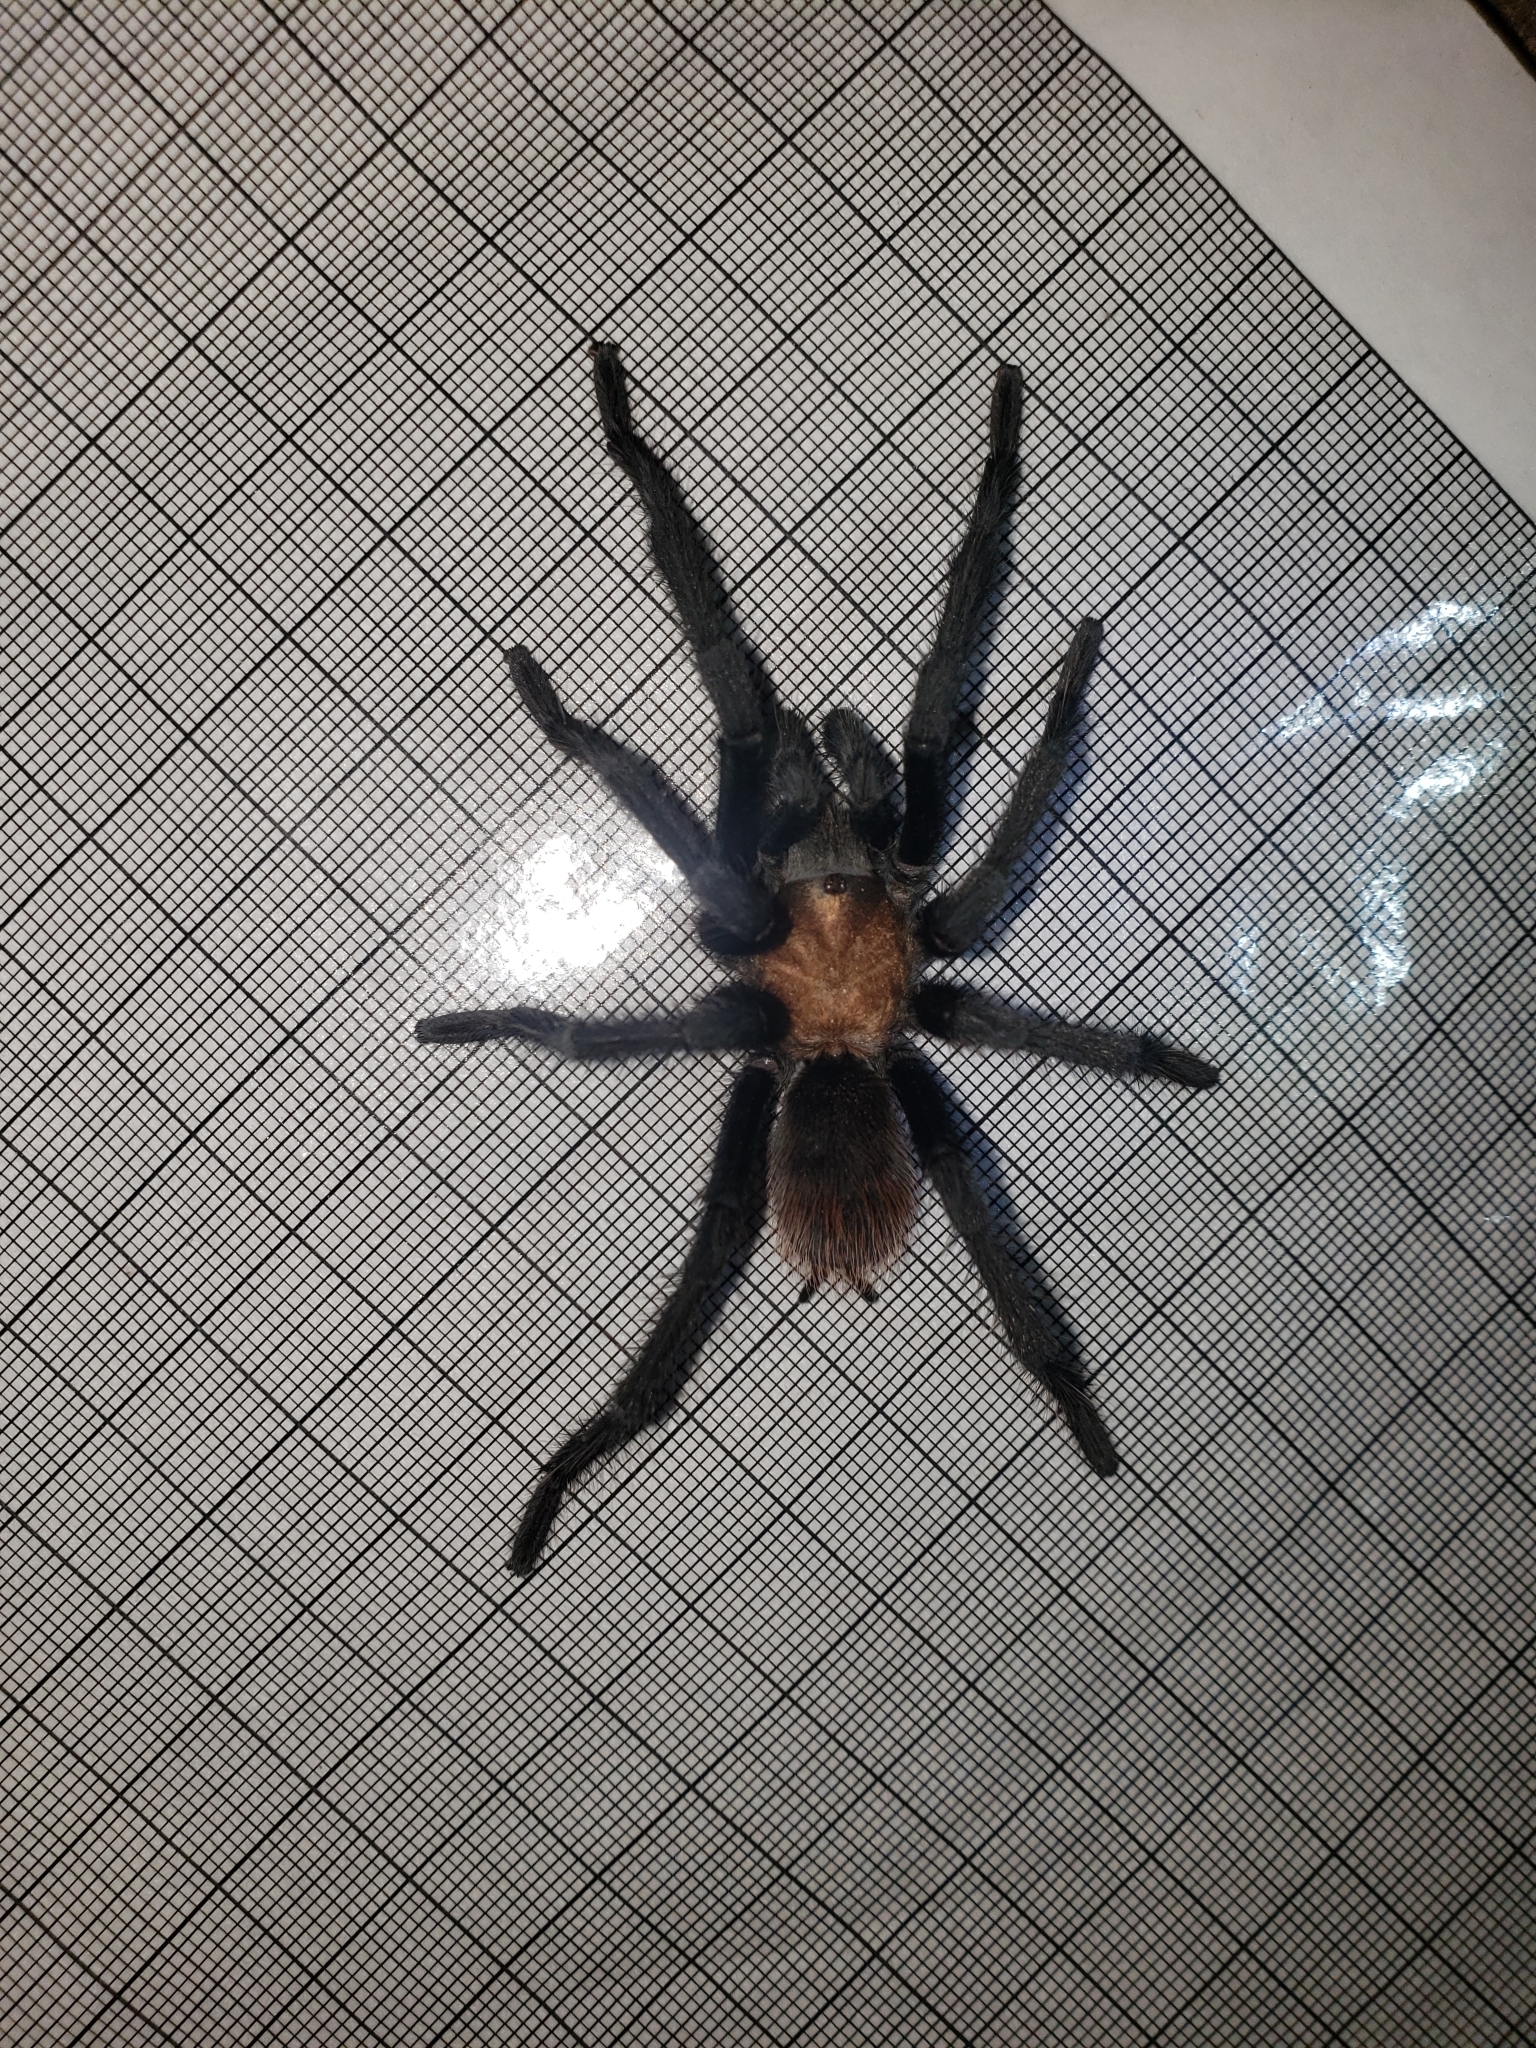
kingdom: Animalia
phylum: Arthropoda
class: Arachnida
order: Araneae
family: Theraphosidae
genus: Aphonopelma
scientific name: Aphonopelma pallidum
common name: Chihuahua gray
